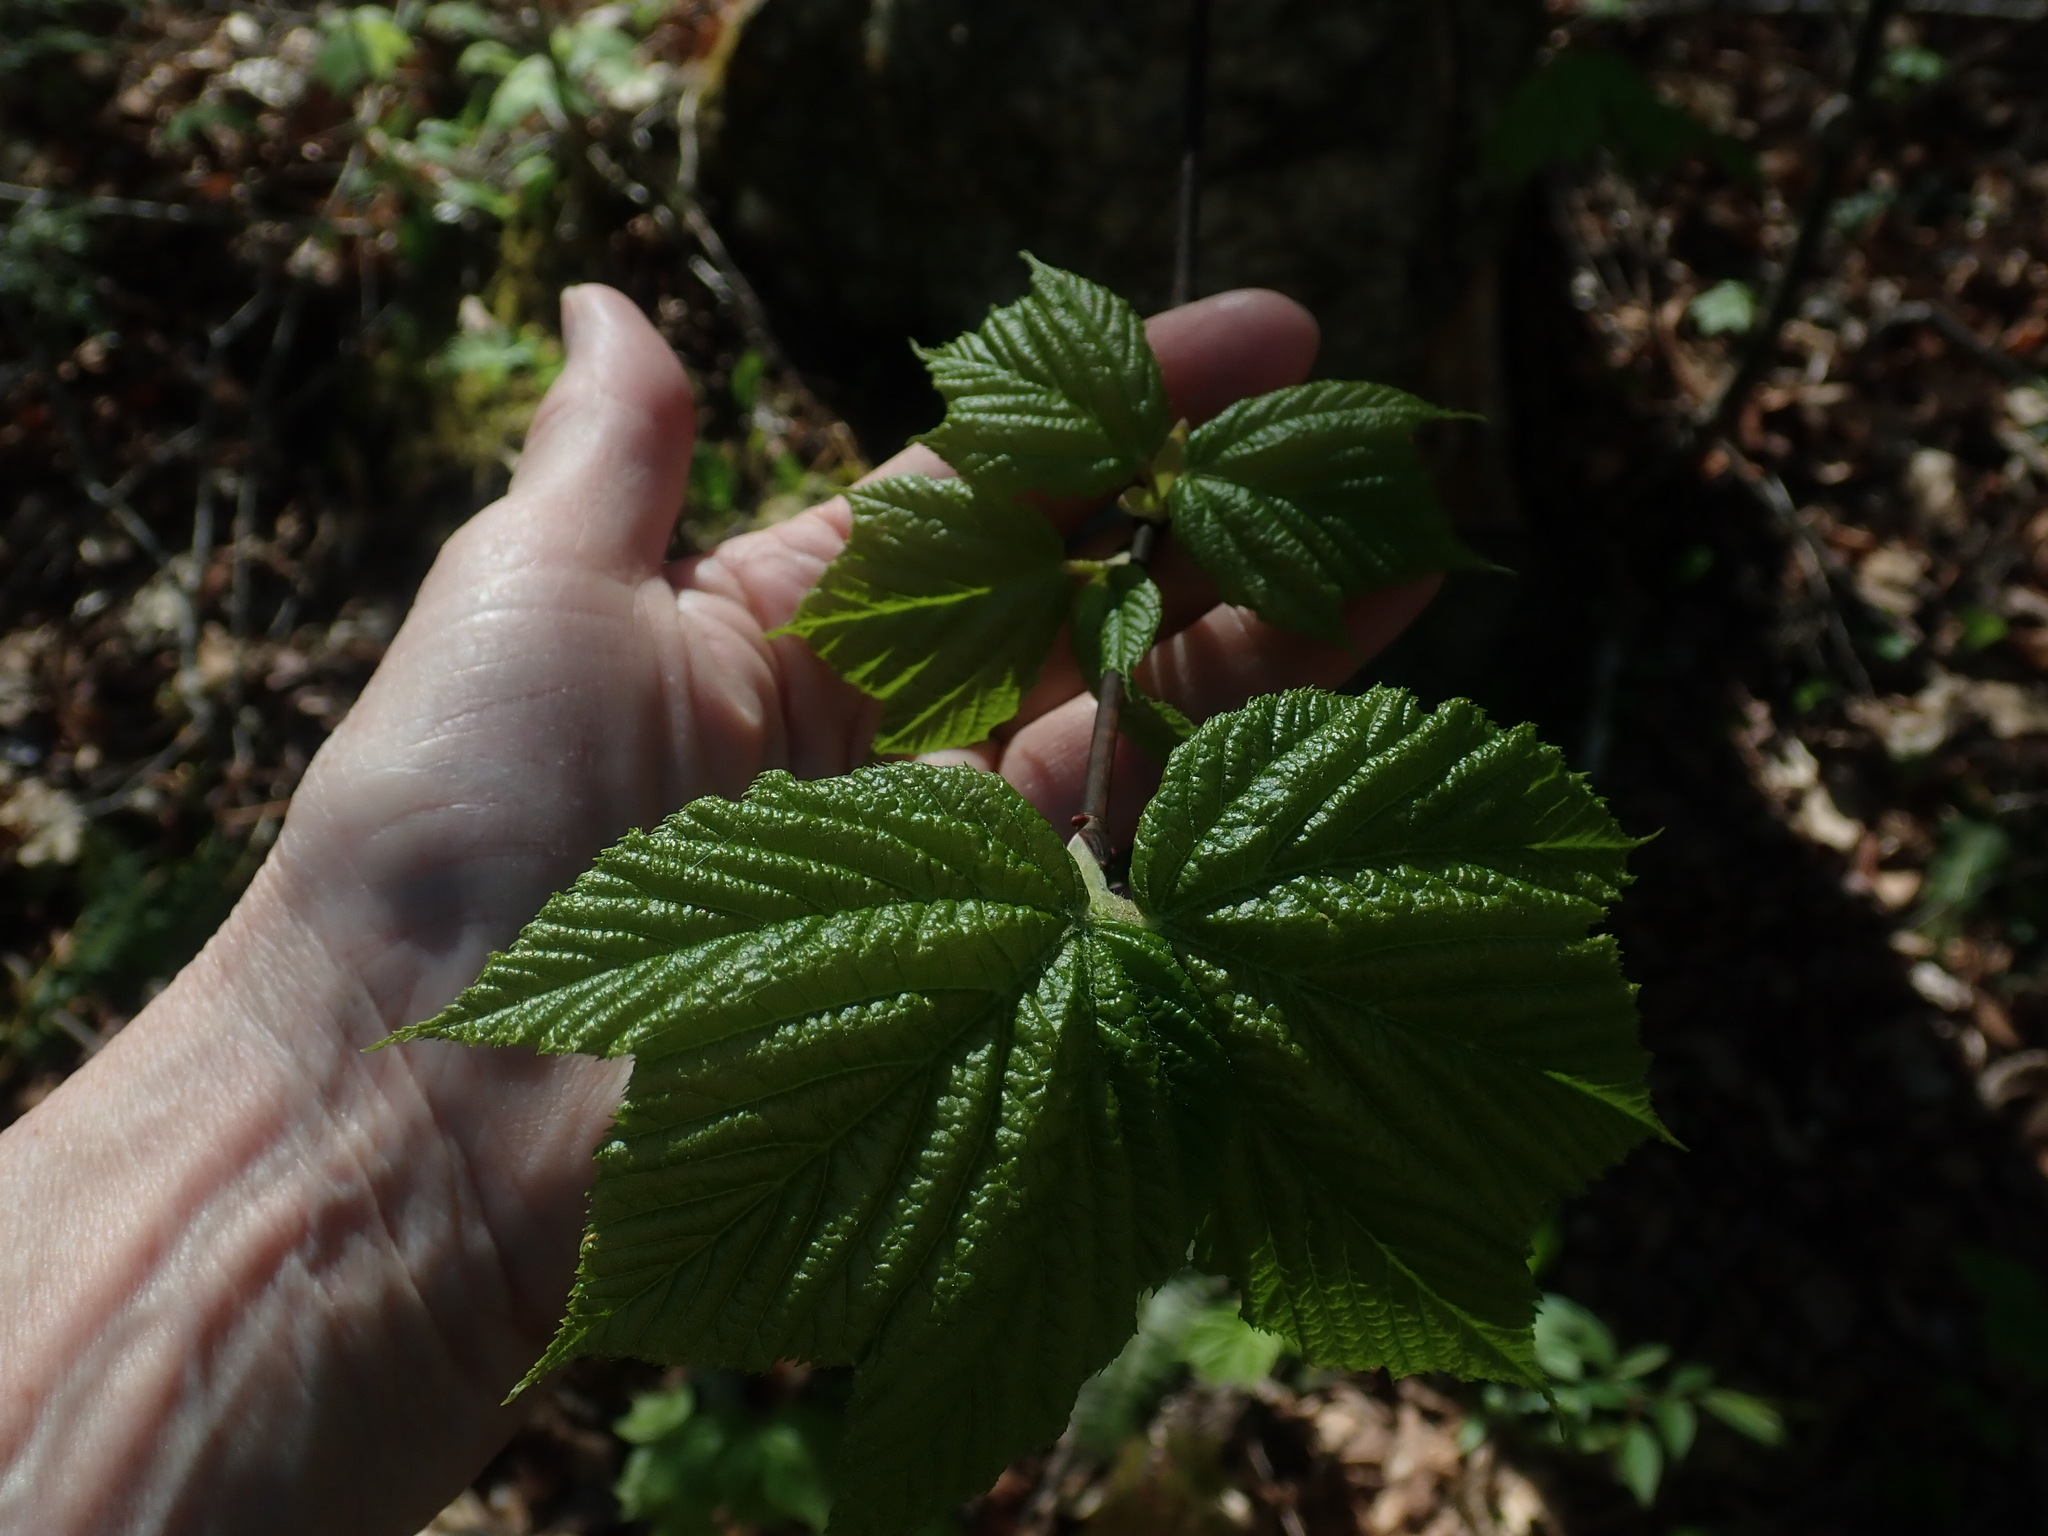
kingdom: Plantae
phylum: Tracheophyta
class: Magnoliopsida
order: Sapindales
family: Sapindaceae
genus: Acer
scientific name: Acer pensylvanicum
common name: Moosewood
